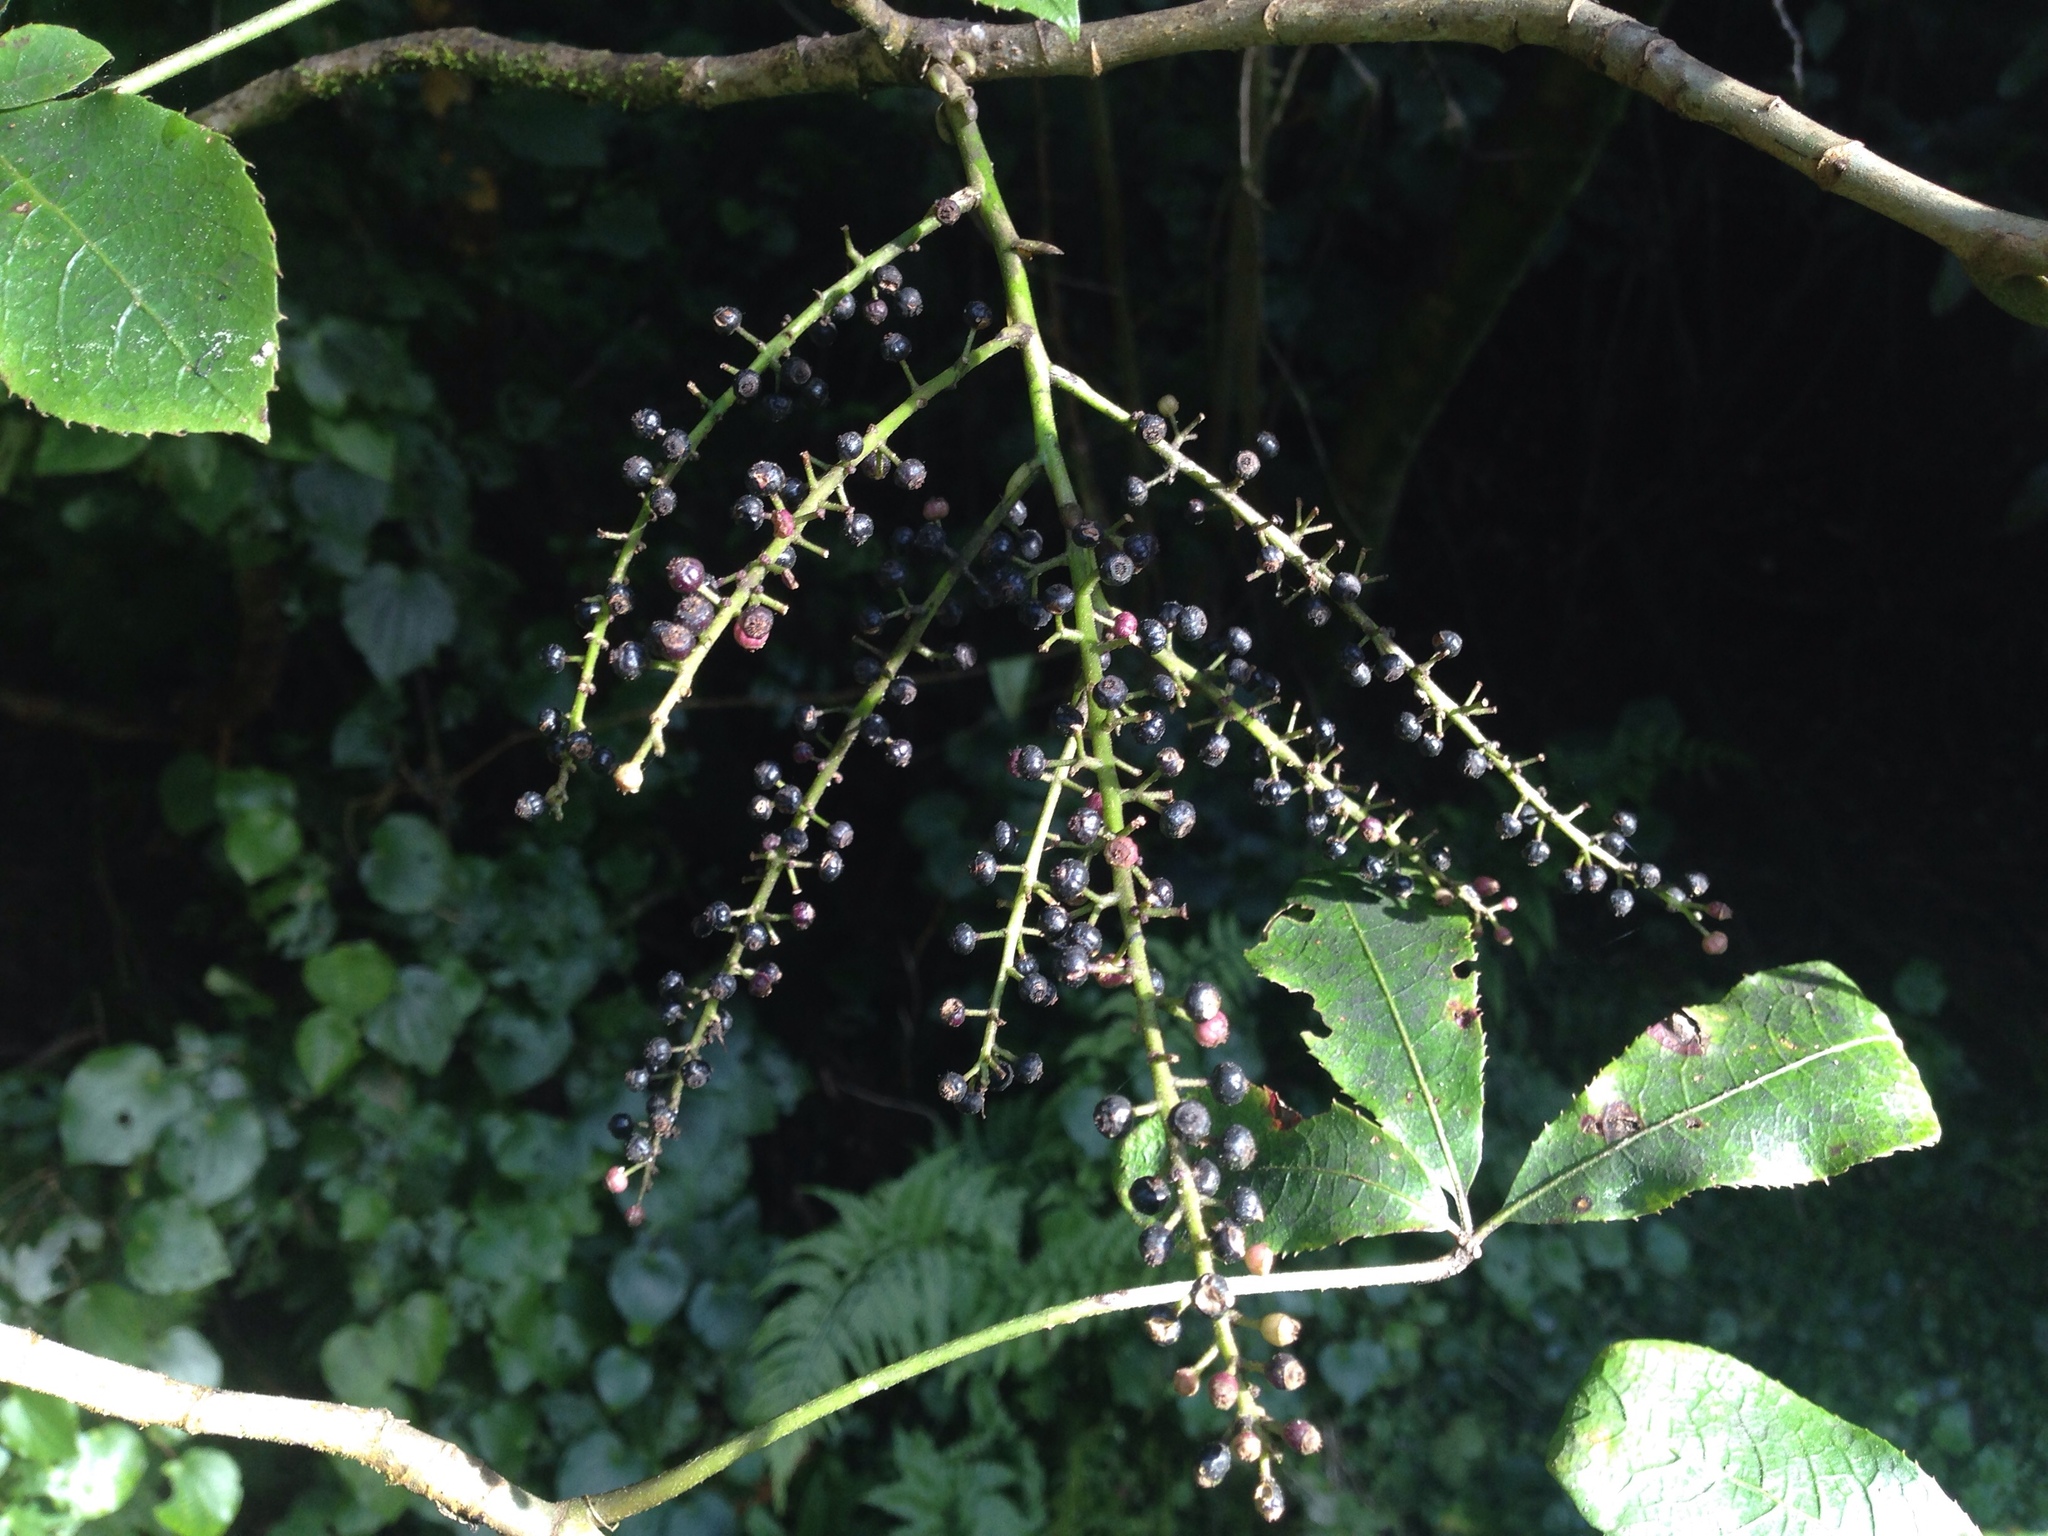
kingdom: Plantae
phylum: Tracheophyta
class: Magnoliopsida
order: Apiales
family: Araliaceae
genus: Schefflera
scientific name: Schefflera digitata
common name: Pate
